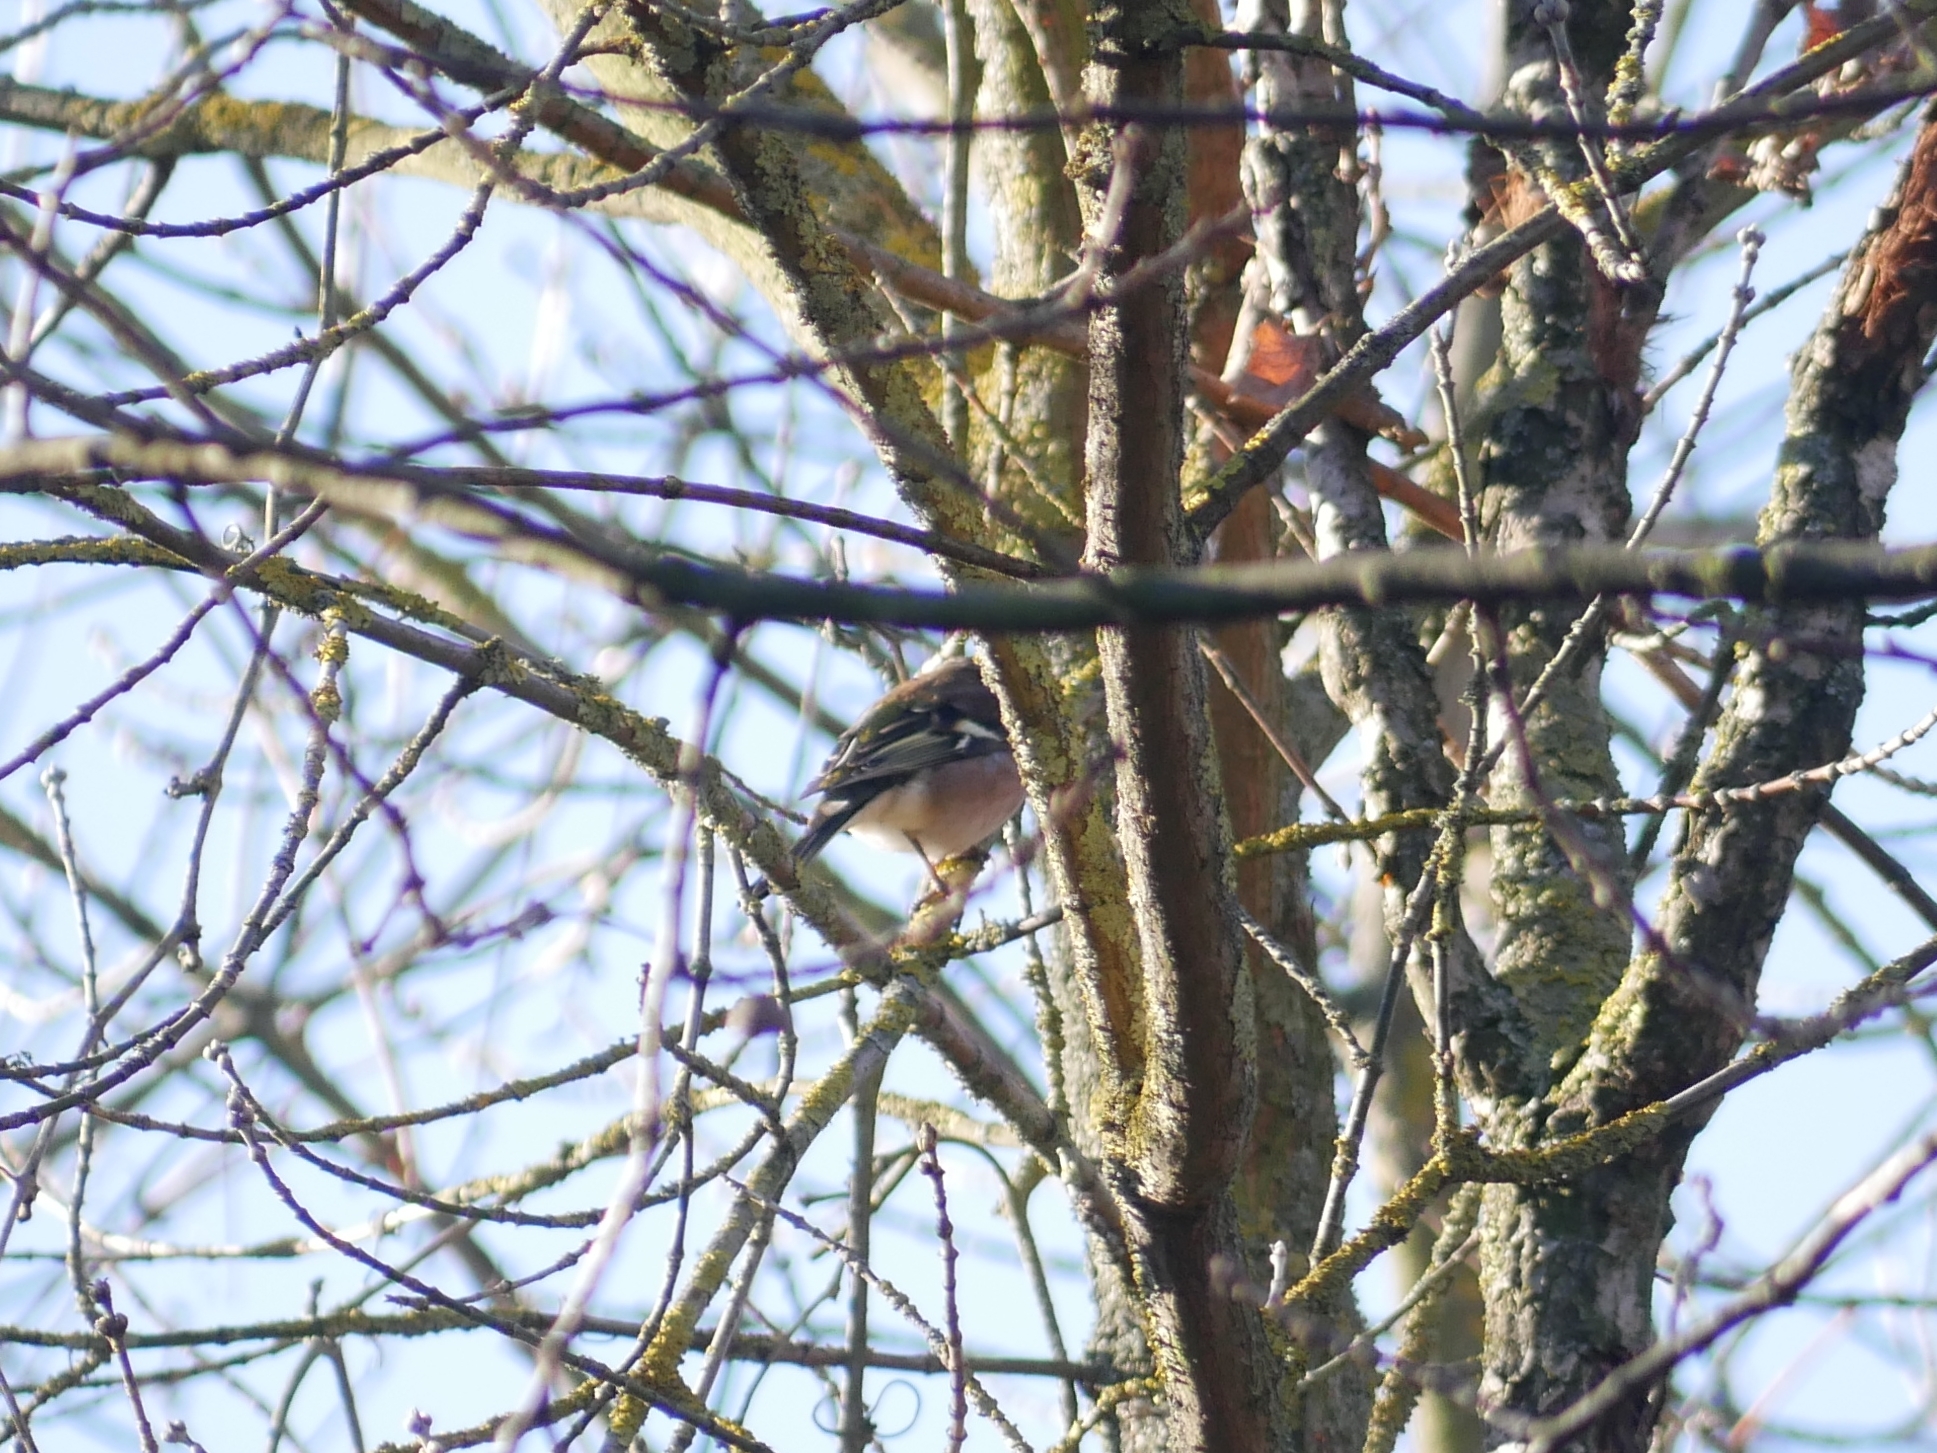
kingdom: Animalia
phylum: Chordata
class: Aves
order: Passeriformes
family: Fringillidae
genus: Fringilla
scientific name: Fringilla coelebs
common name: Common chaffinch
